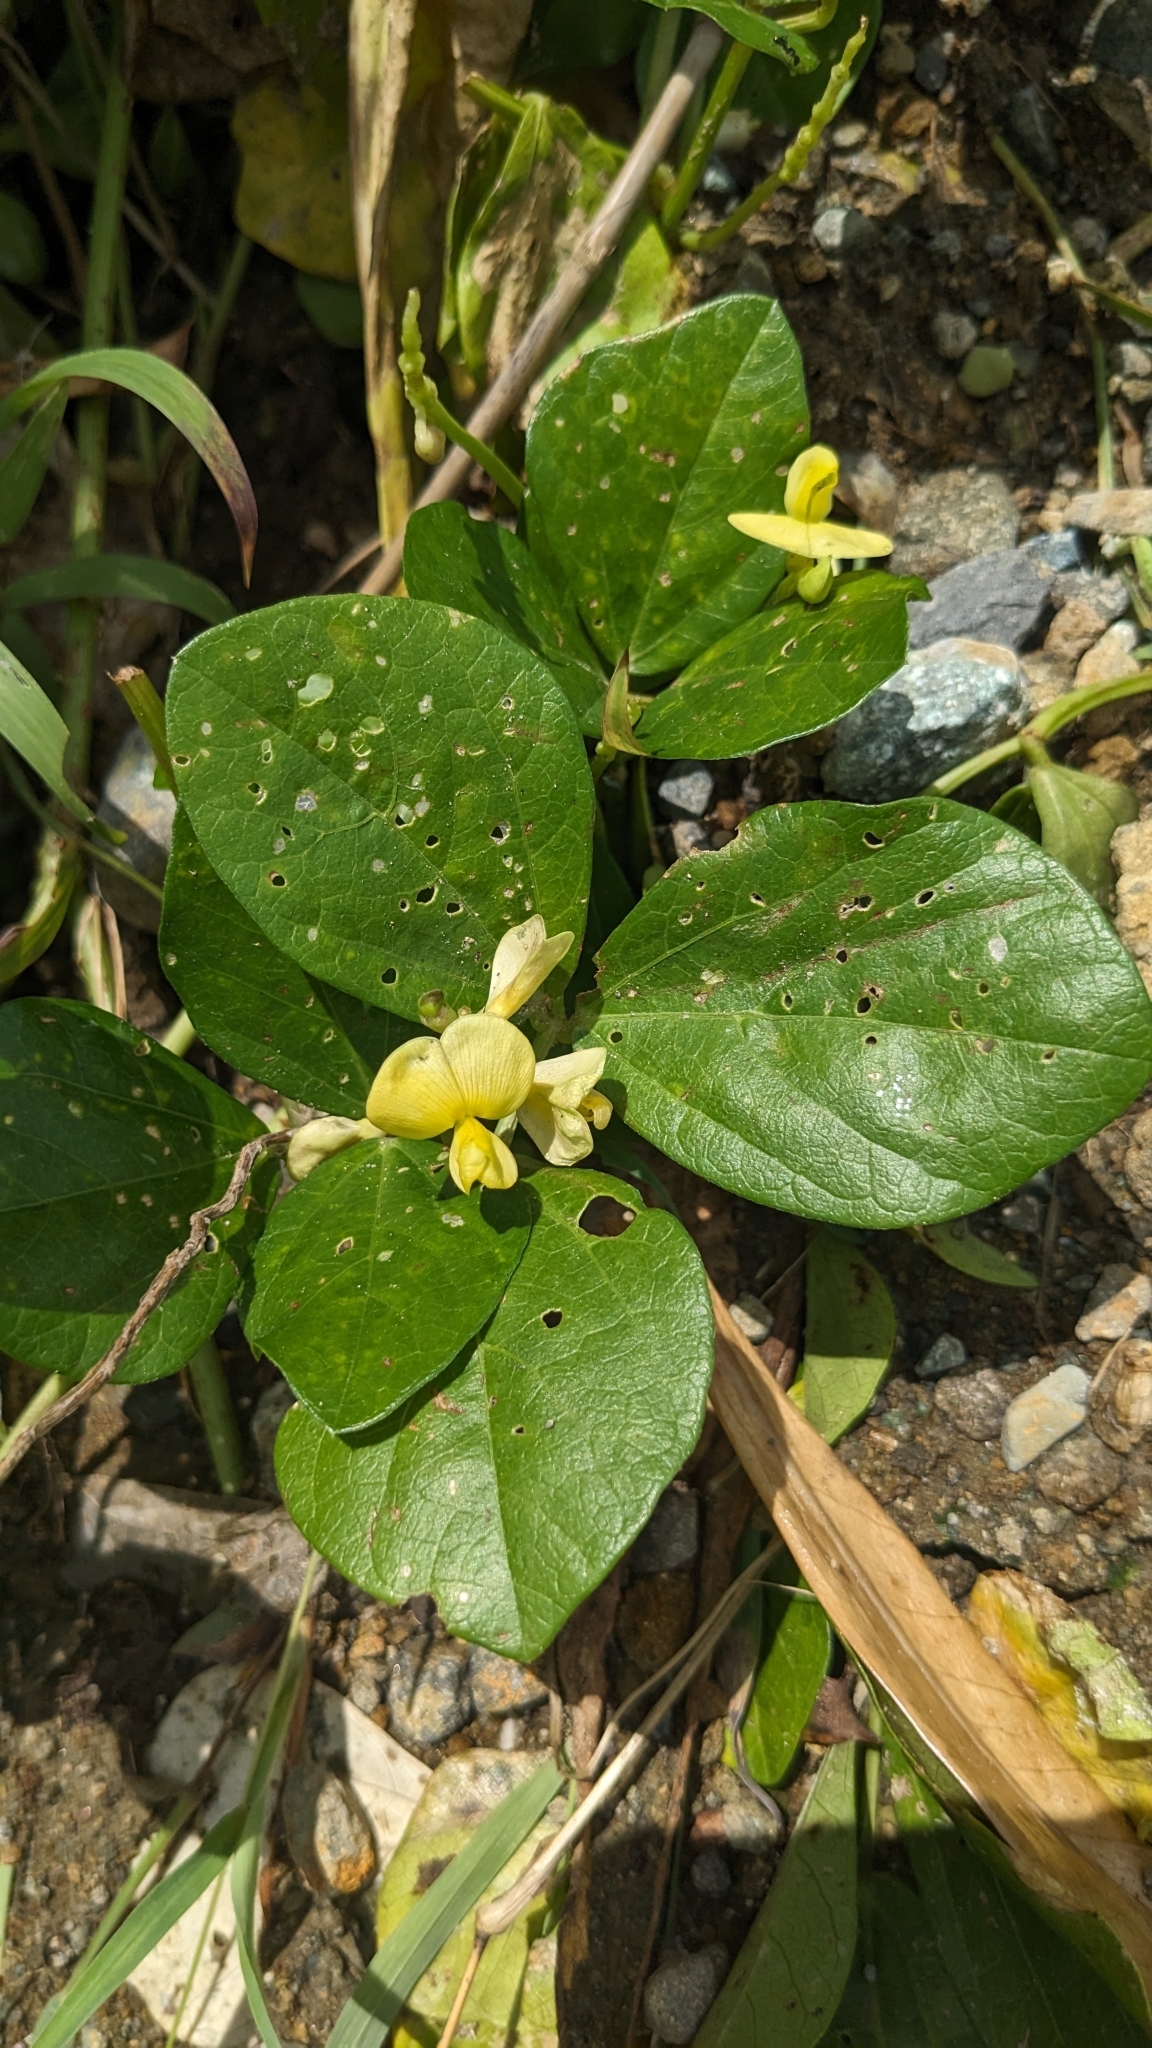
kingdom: Plantae
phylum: Tracheophyta
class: Magnoliopsida
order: Fabales
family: Fabaceae
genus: Vigna
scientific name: Vigna marina
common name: Dune-bean
